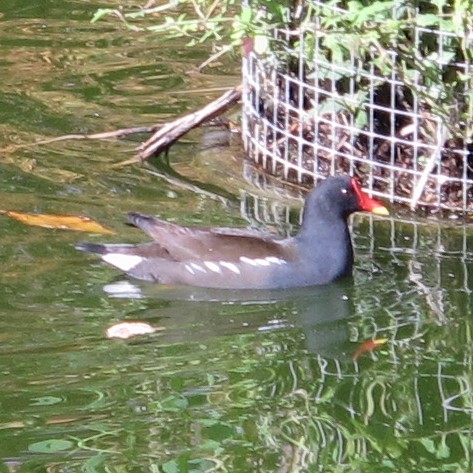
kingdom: Animalia
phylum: Chordata
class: Aves
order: Gruiformes
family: Rallidae
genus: Gallinula
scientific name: Gallinula chloropus
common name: Common moorhen
